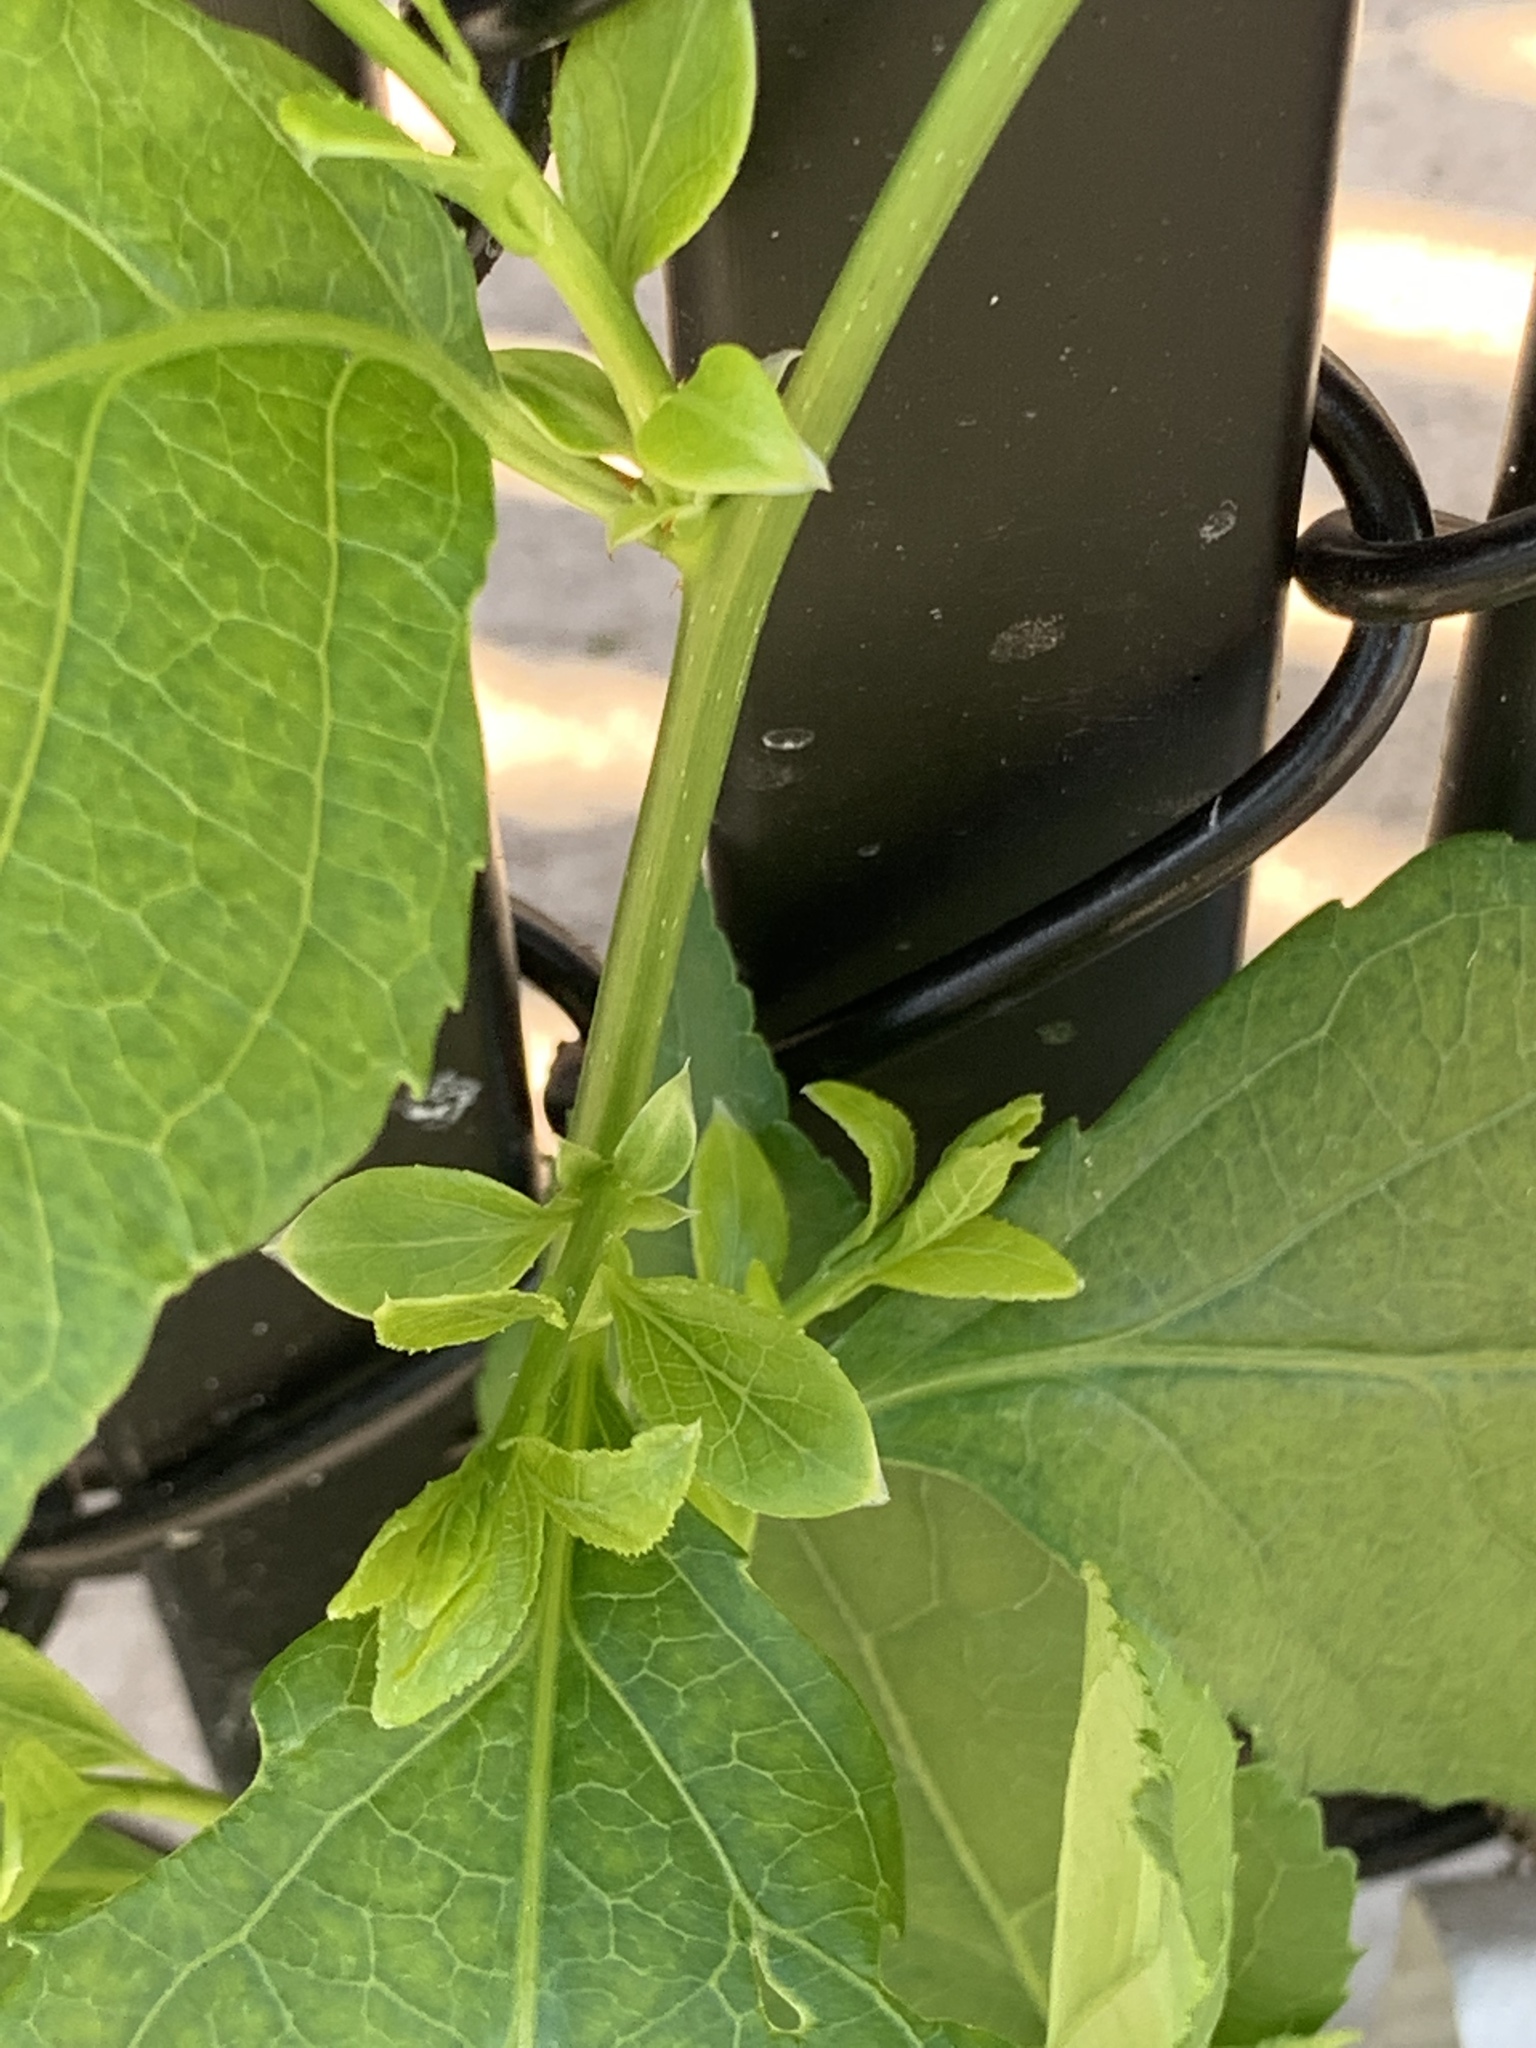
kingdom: Plantae
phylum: Tracheophyta
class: Magnoliopsida
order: Celastrales
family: Celastraceae
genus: Celastrus
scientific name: Celastrus orbiculatus
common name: Oriental bittersweet
